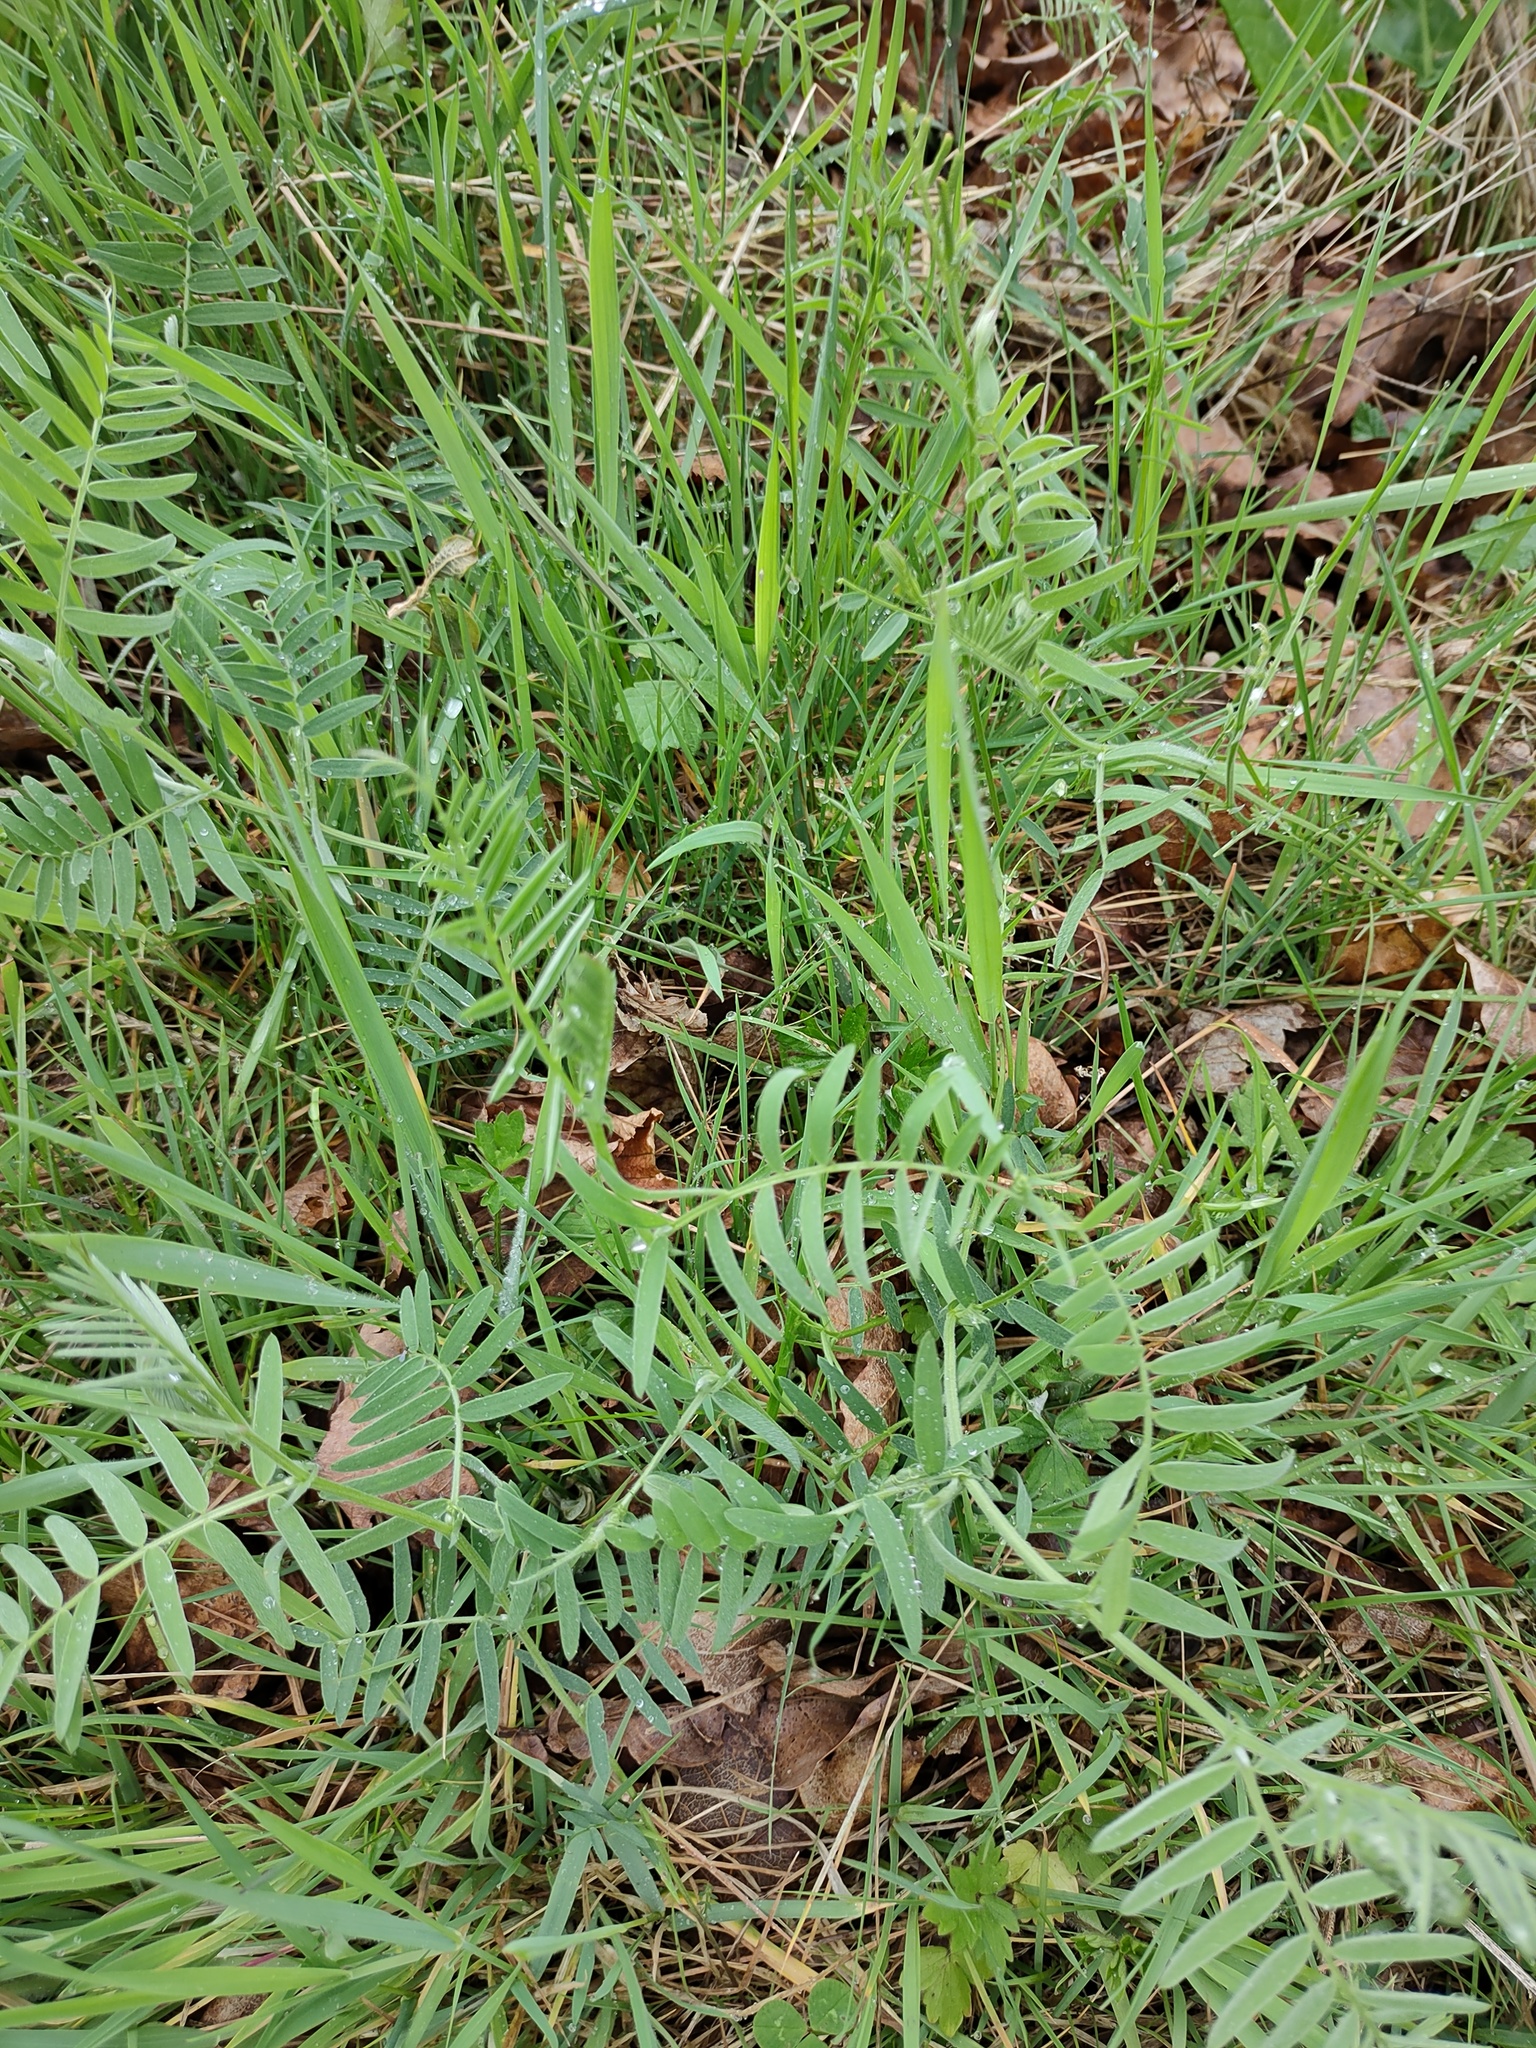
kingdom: Plantae
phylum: Tracheophyta
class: Magnoliopsida
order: Fabales
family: Fabaceae
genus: Vicia
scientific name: Vicia cracca
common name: Bird vetch
